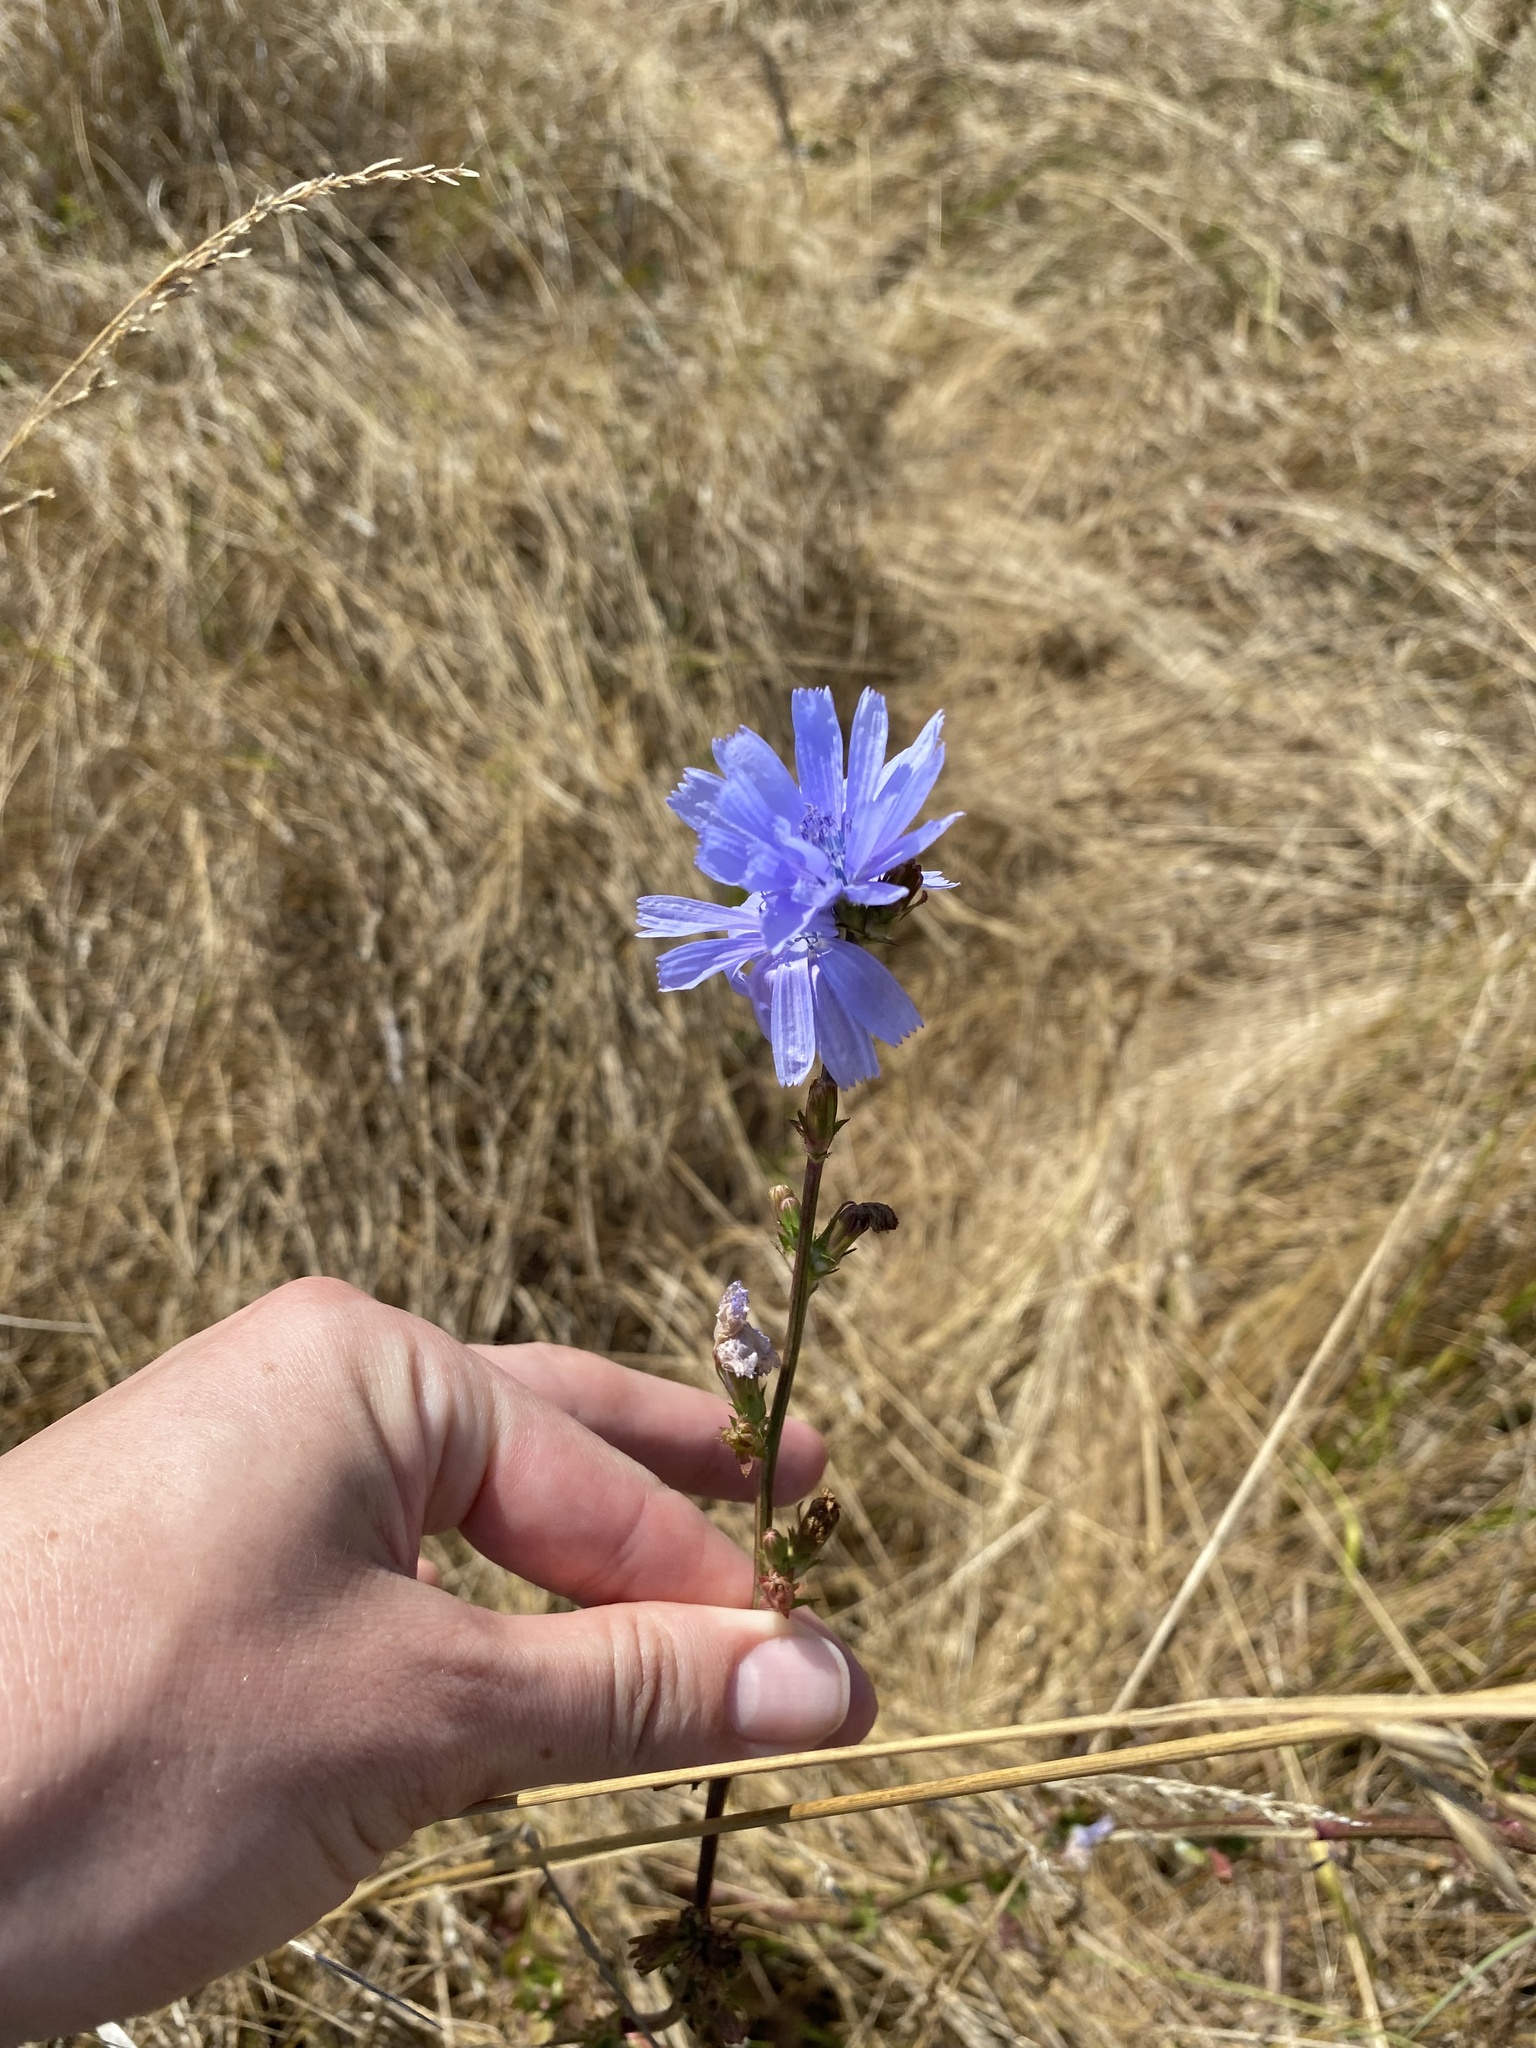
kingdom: Plantae
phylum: Tracheophyta
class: Magnoliopsida
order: Asterales
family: Asteraceae
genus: Cichorium
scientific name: Cichorium intybus
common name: Chicory
